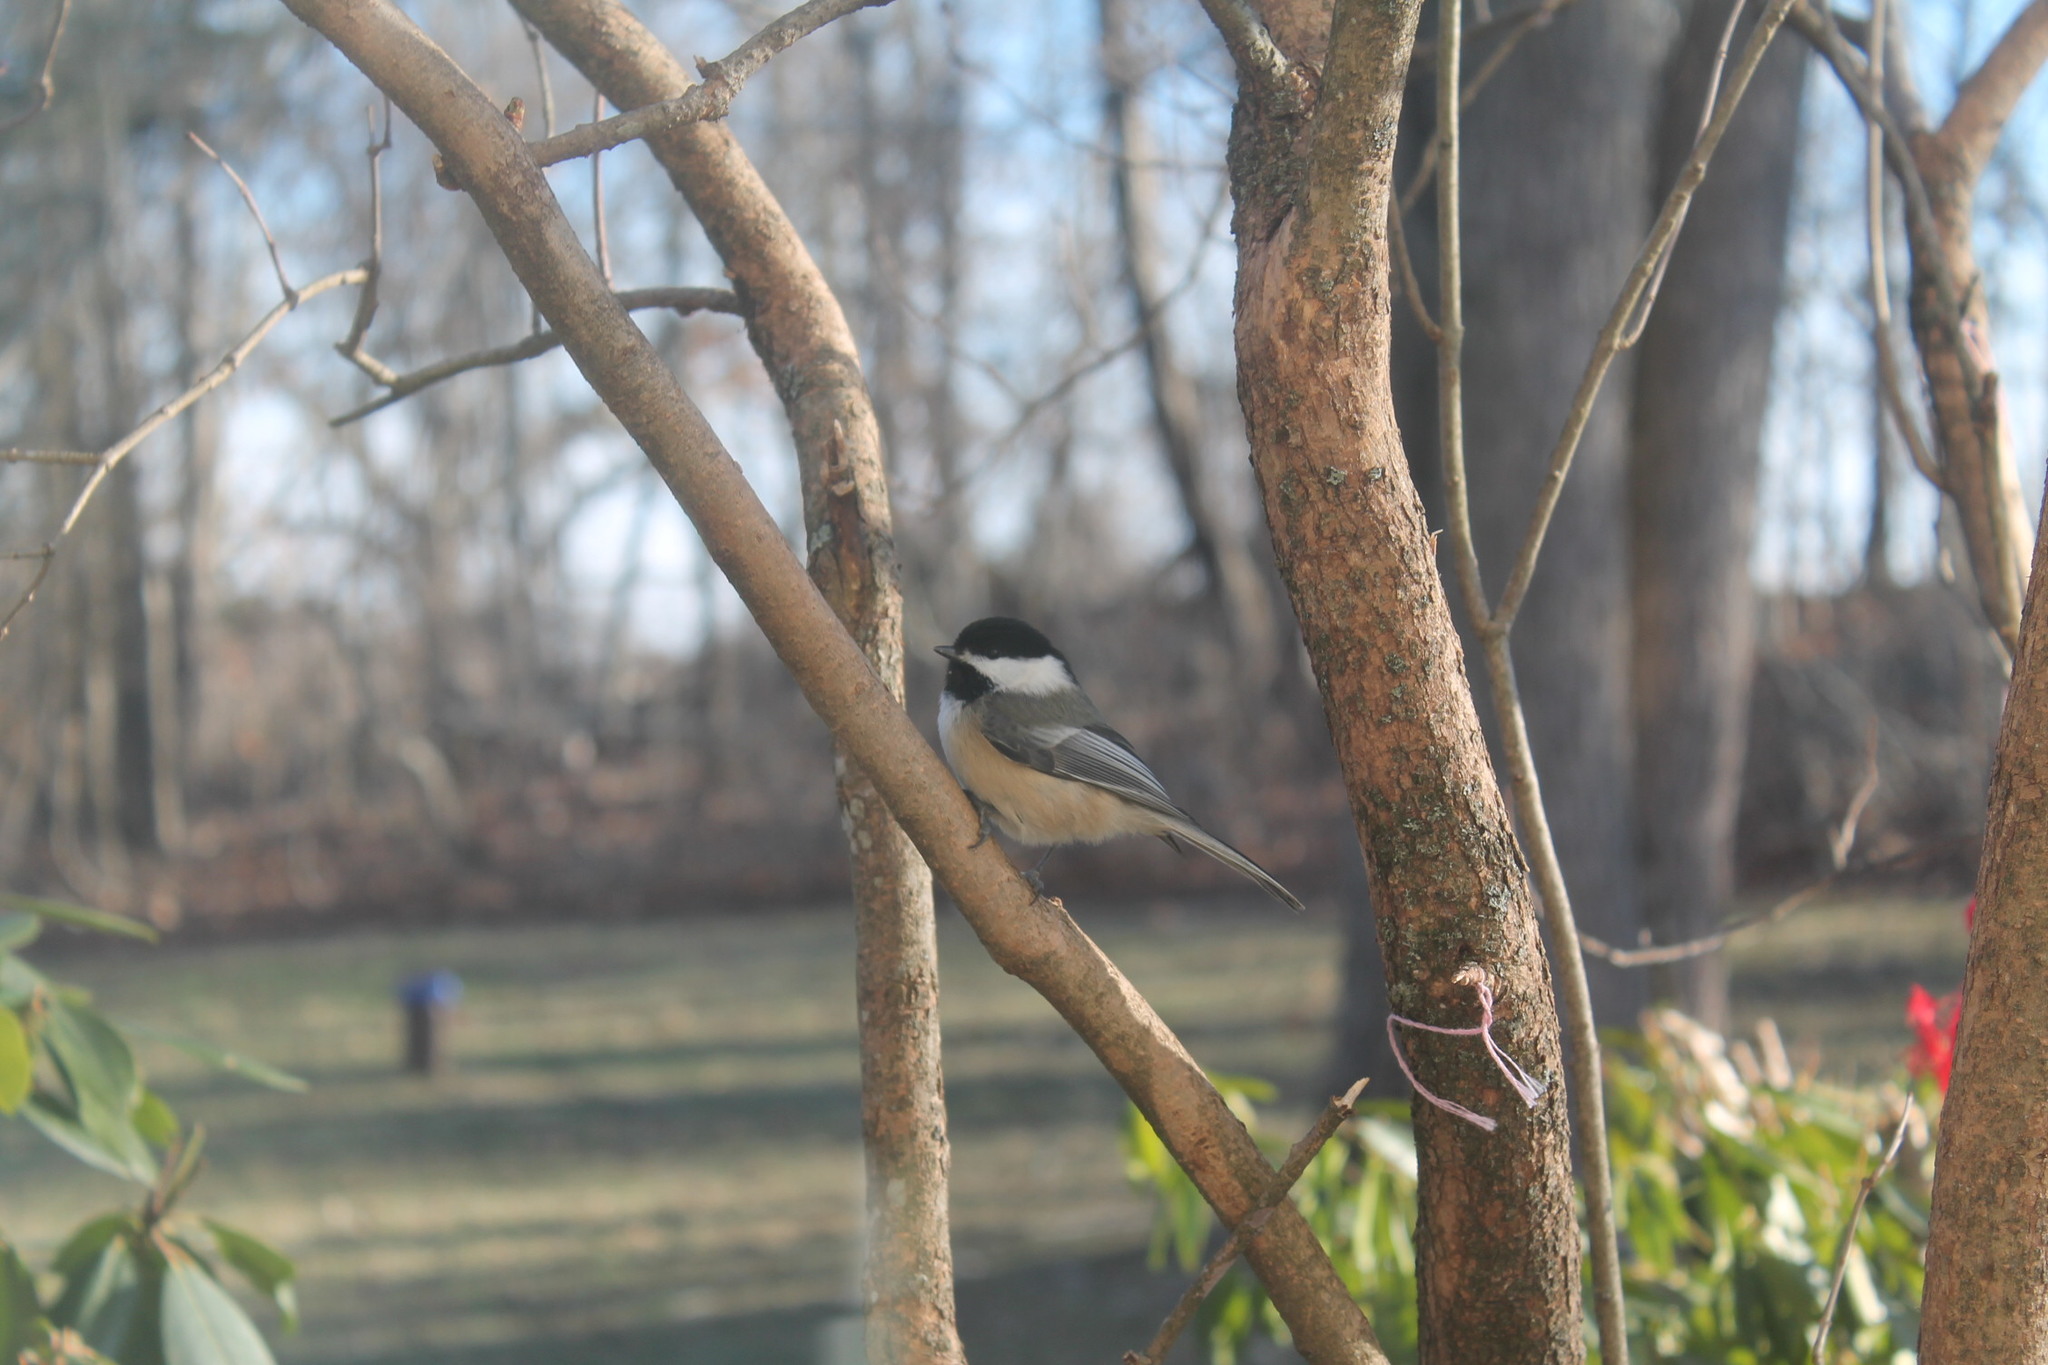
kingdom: Animalia
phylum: Chordata
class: Aves
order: Passeriformes
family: Paridae
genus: Poecile
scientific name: Poecile atricapillus
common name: Black-capped chickadee
